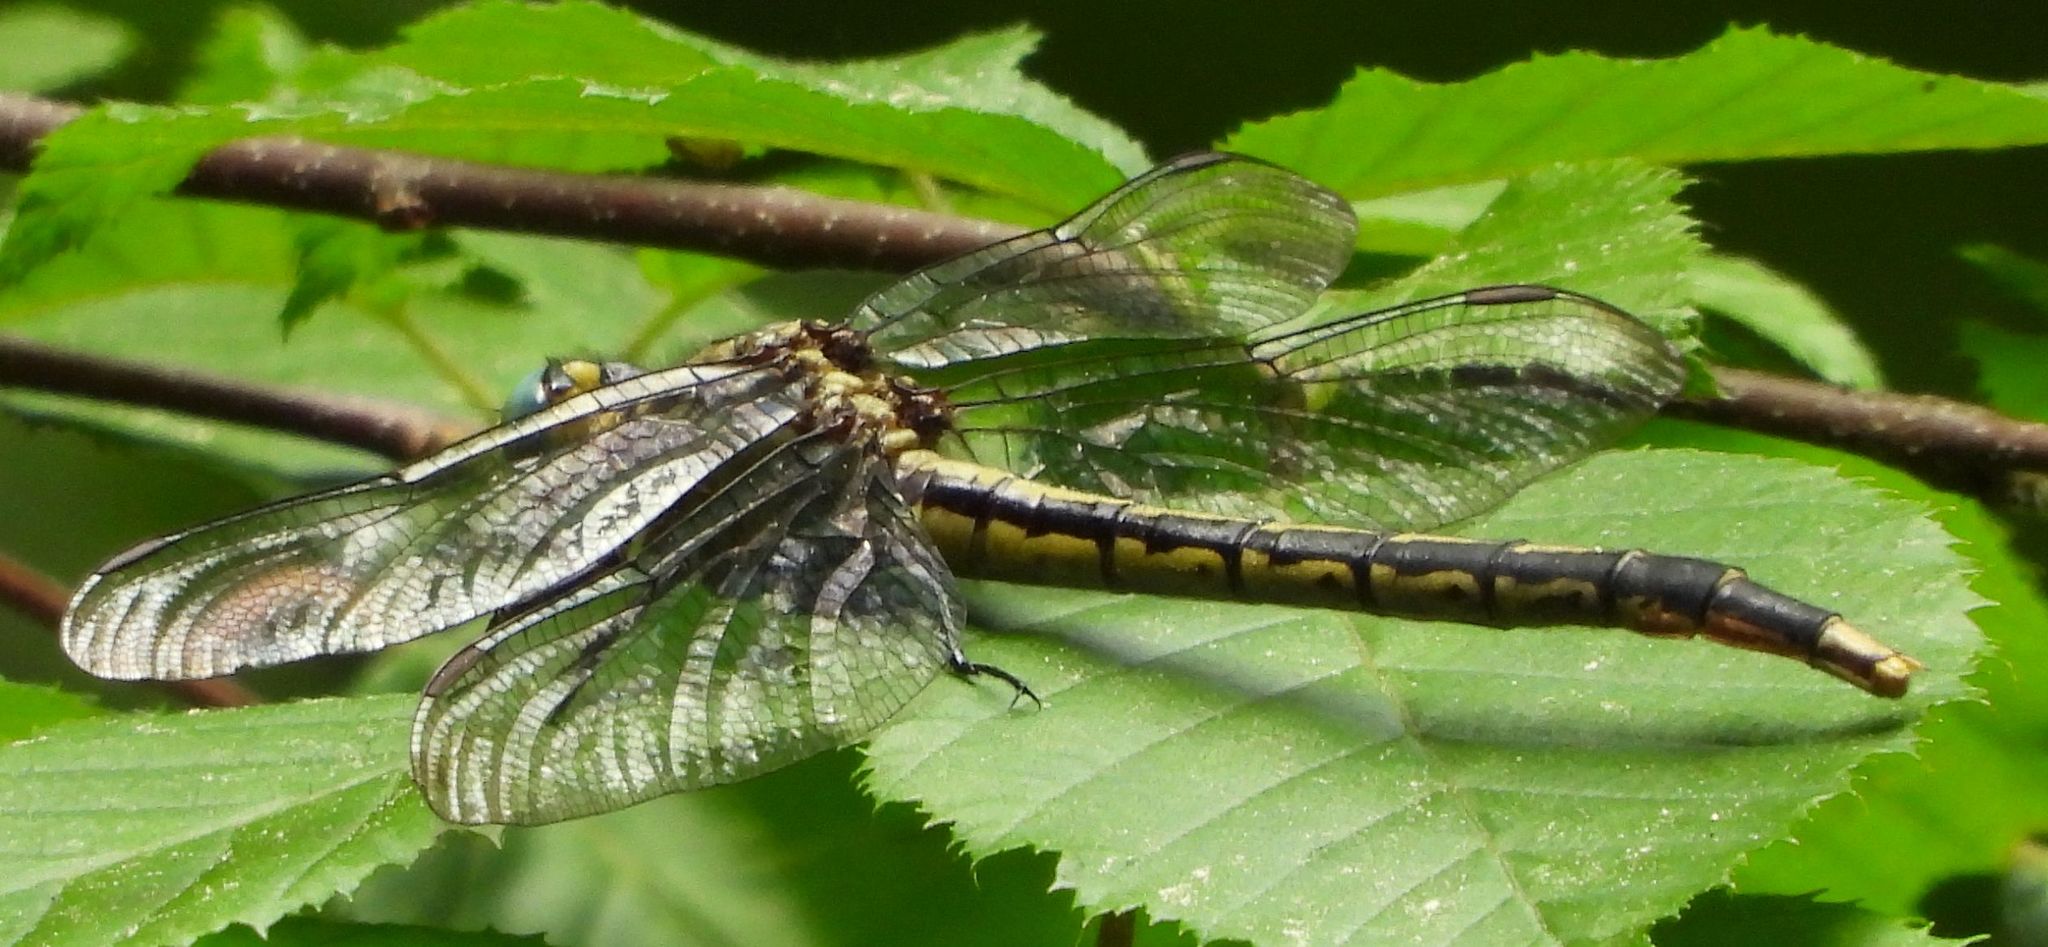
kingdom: Animalia
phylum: Arthropoda
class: Insecta
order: Odonata
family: Gomphidae
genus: Arigomphus
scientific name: Arigomphus furcifer
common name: Lilypad clubtail
